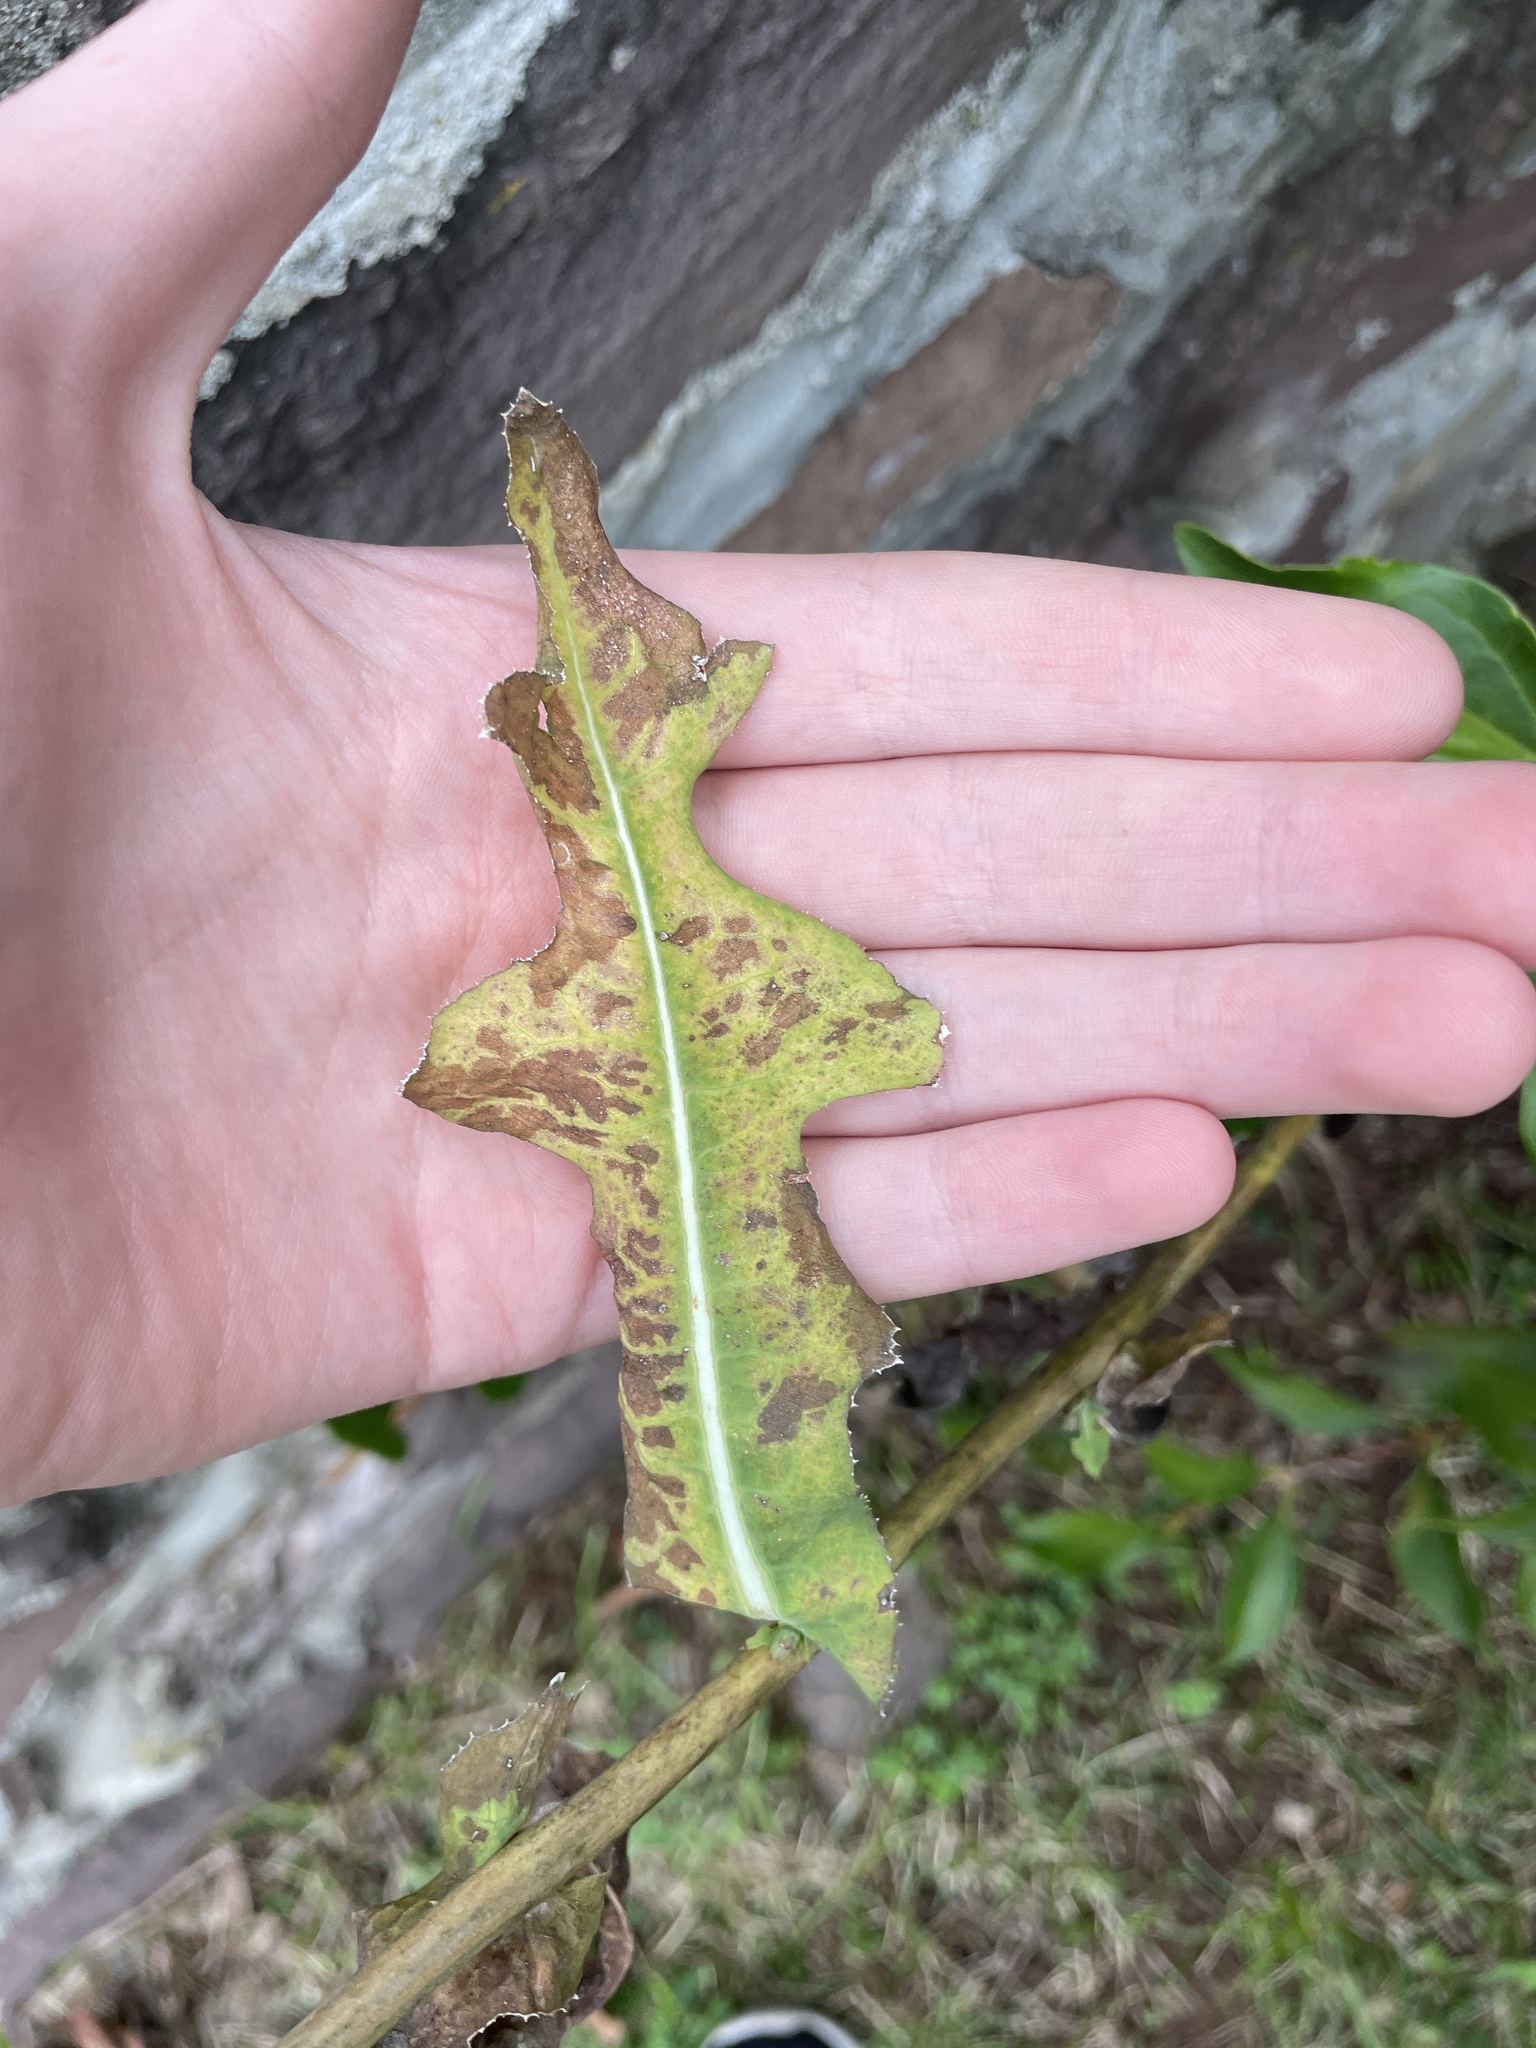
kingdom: Plantae
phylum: Tracheophyta
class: Magnoliopsida
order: Asterales
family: Asteraceae
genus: Lactuca
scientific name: Lactuca serriola
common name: Prickly lettuce
